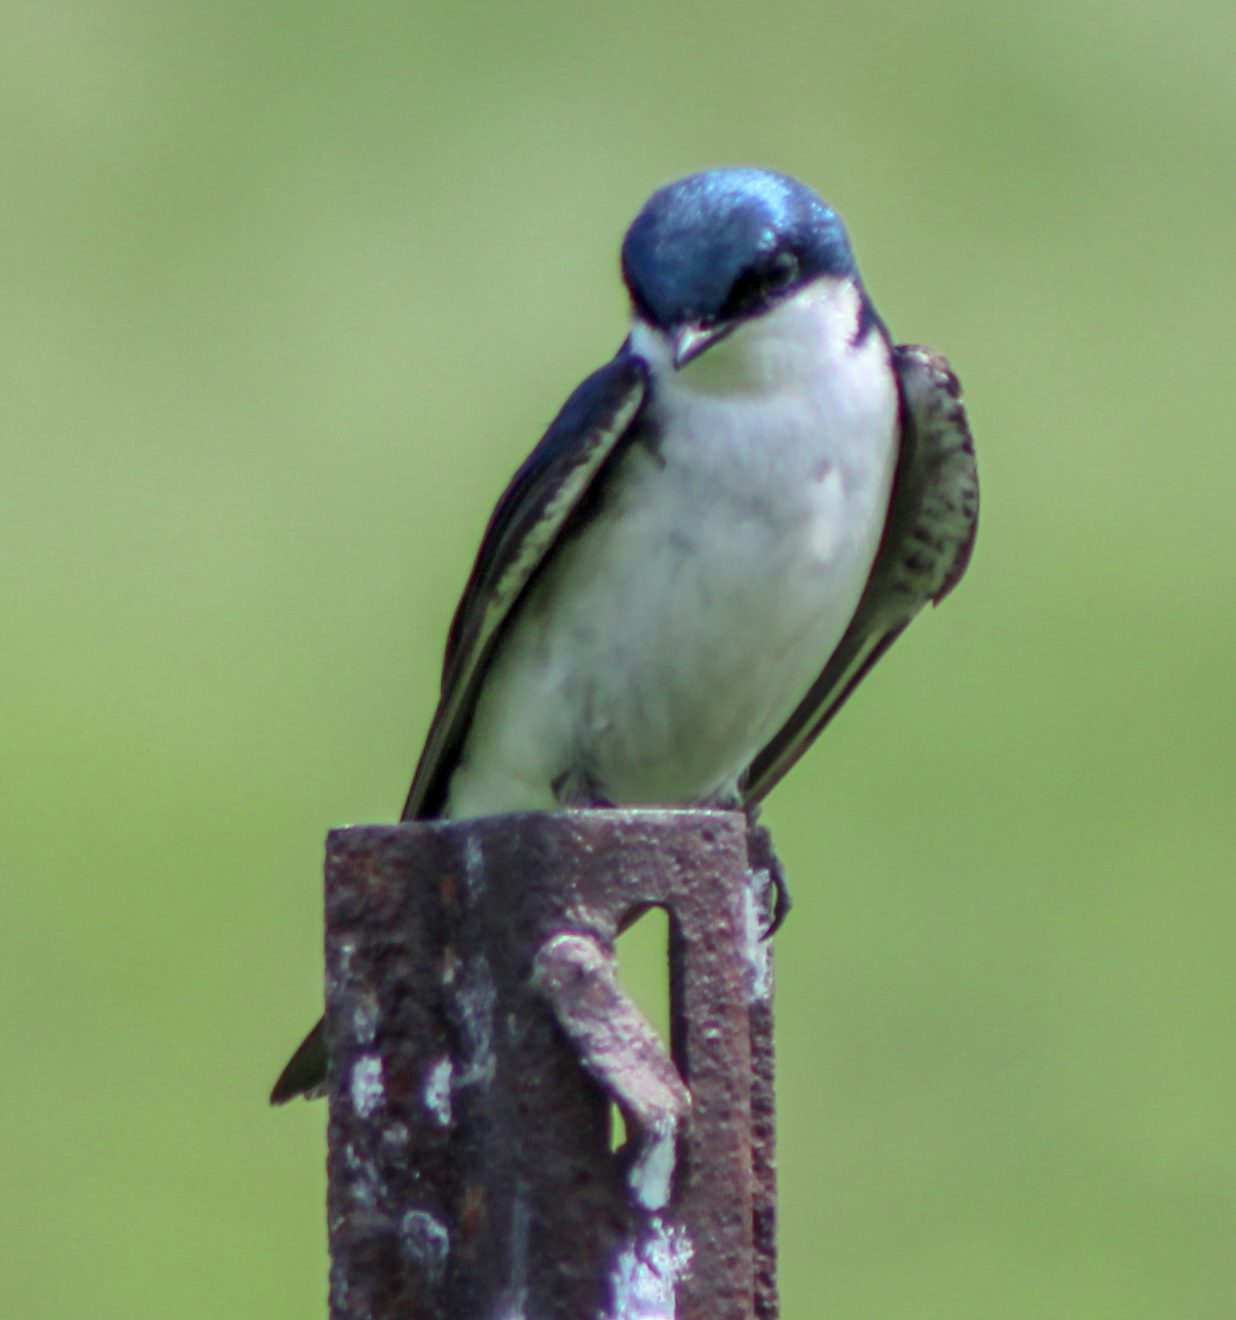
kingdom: Animalia
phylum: Chordata
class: Aves
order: Passeriformes
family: Hirundinidae
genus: Tachycineta
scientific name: Tachycineta bicolor
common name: Tree swallow
